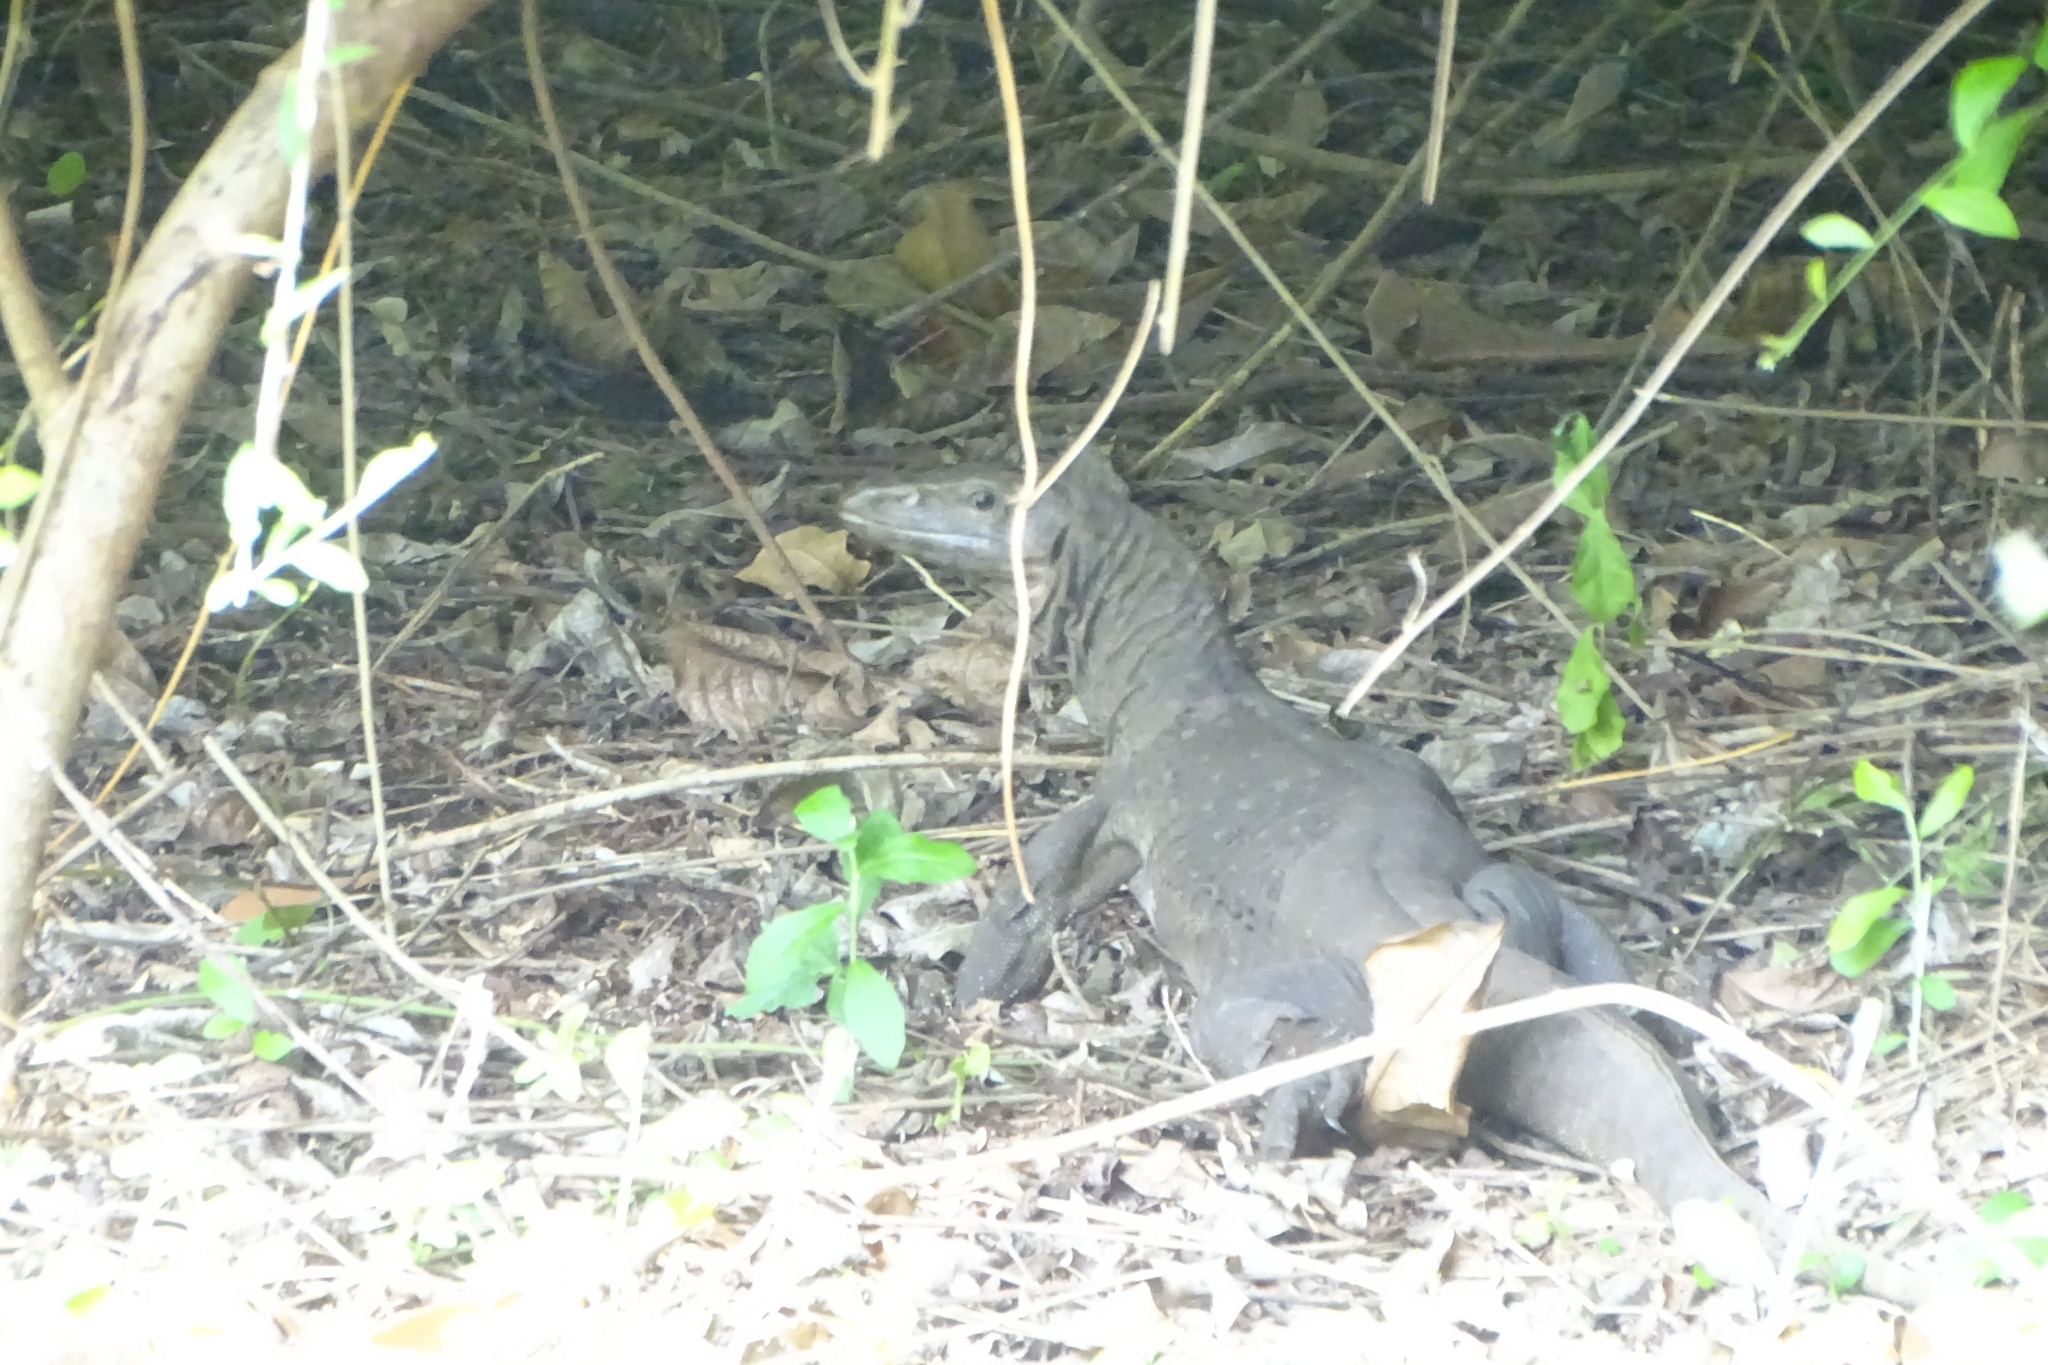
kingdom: Animalia
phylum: Chordata
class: Squamata
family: Varanidae
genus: Varanus
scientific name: Varanus bengalensis
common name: Bengal monitor
